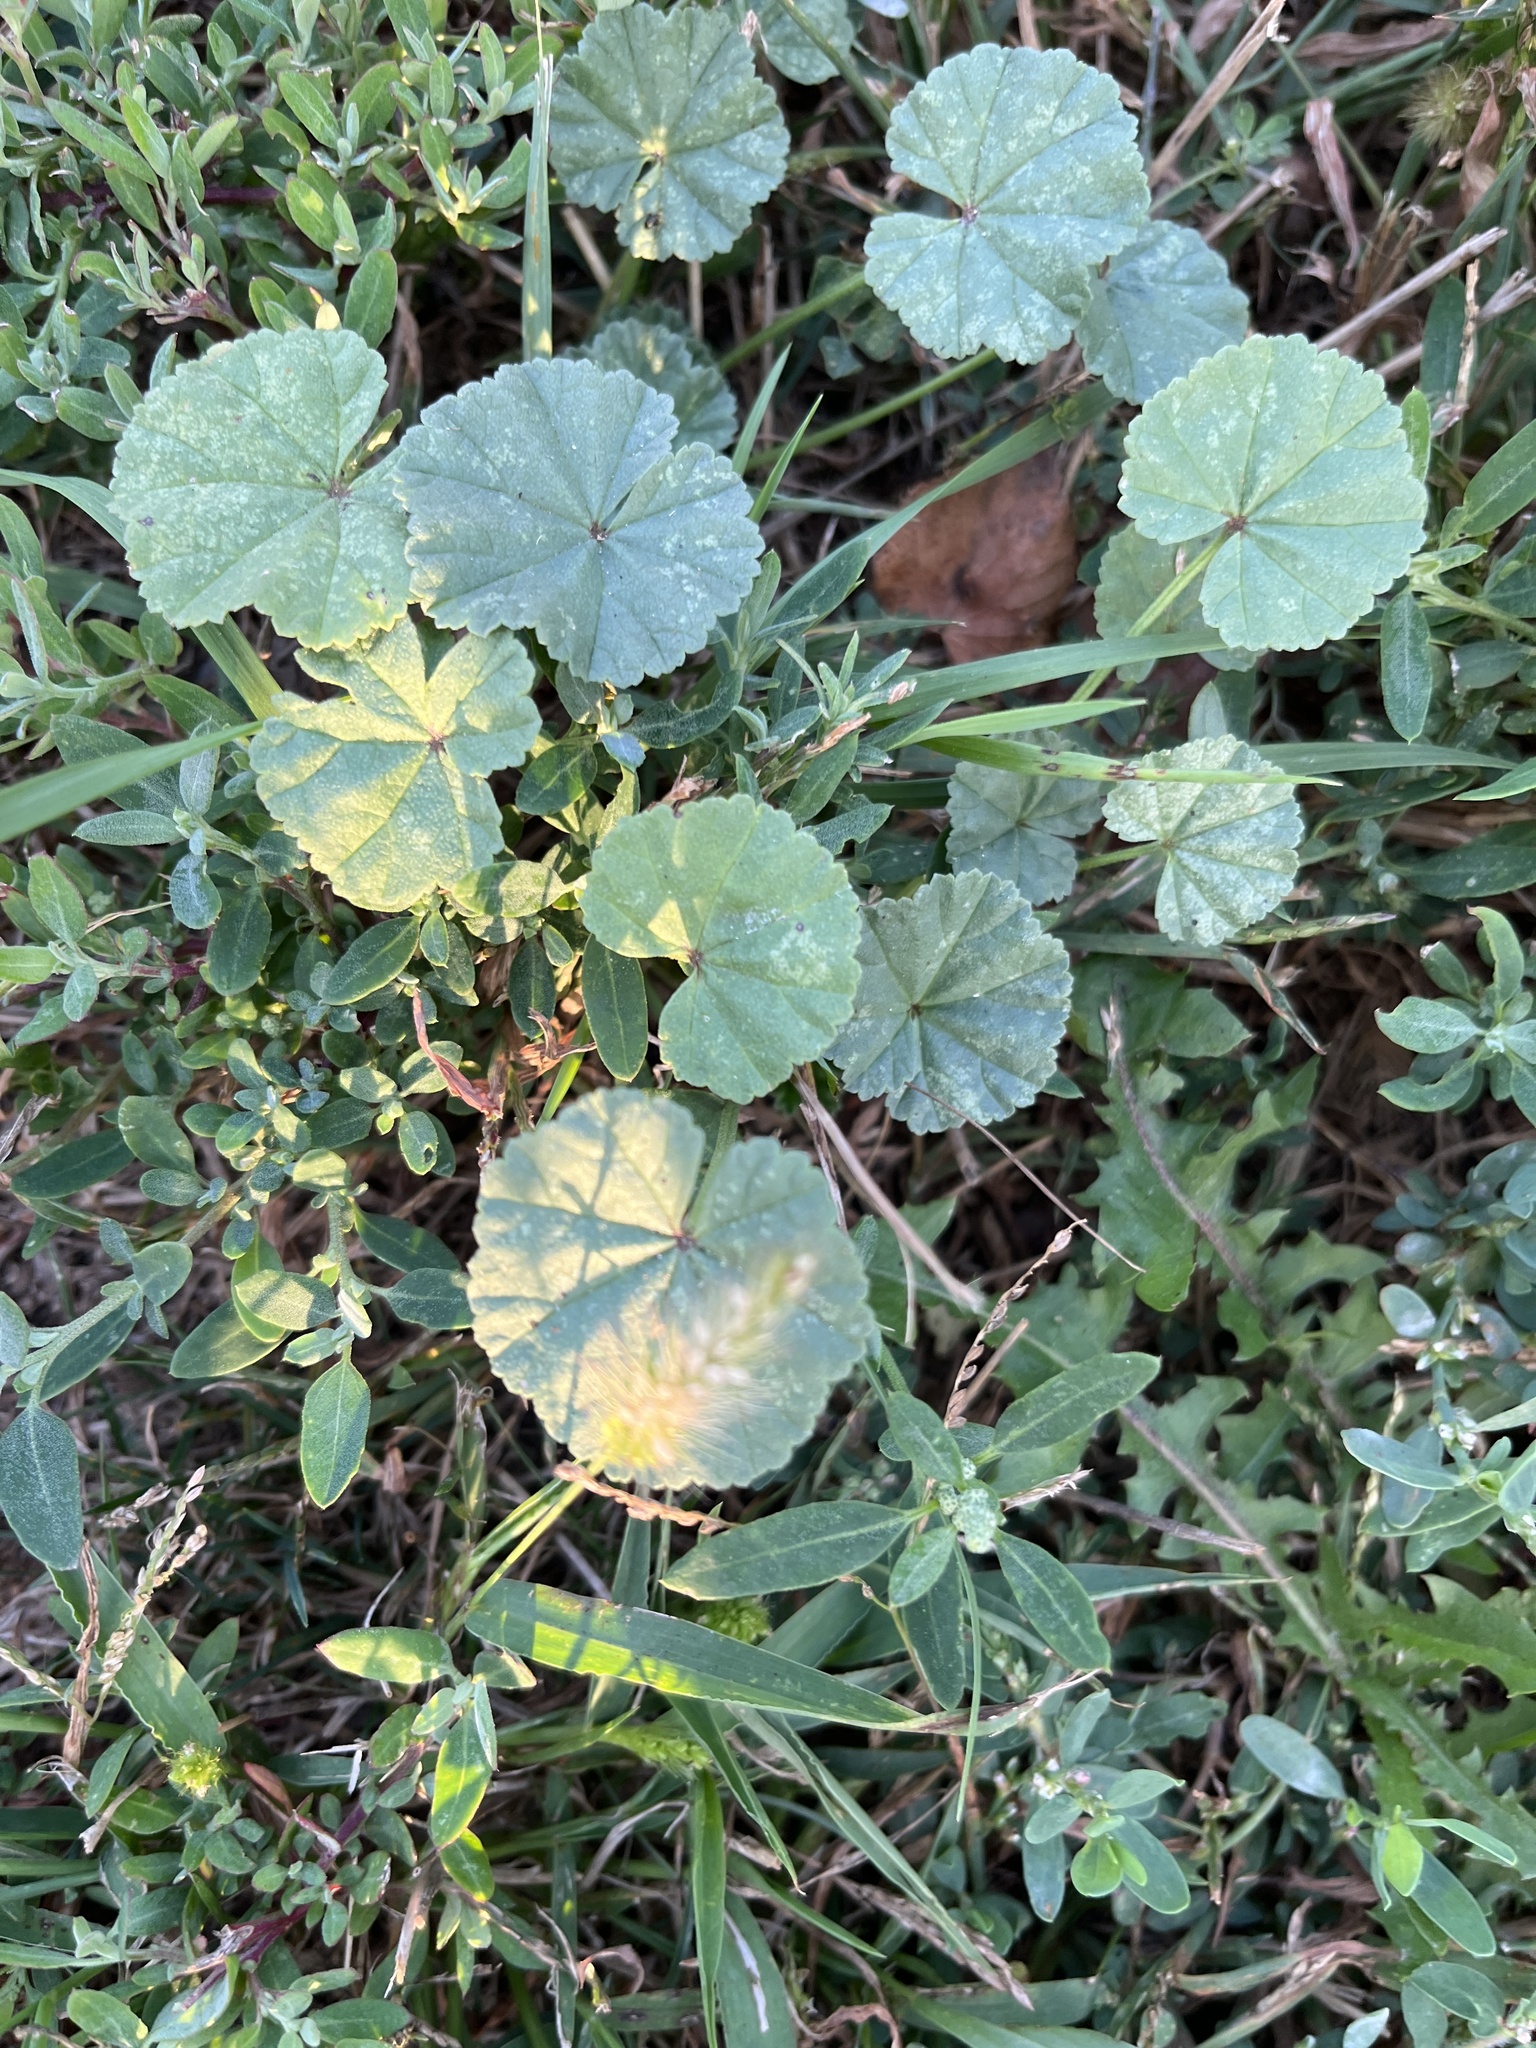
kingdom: Plantae
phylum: Tracheophyta
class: Magnoliopsida
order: Malvales
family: Malvaceae
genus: Malva
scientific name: Malva
